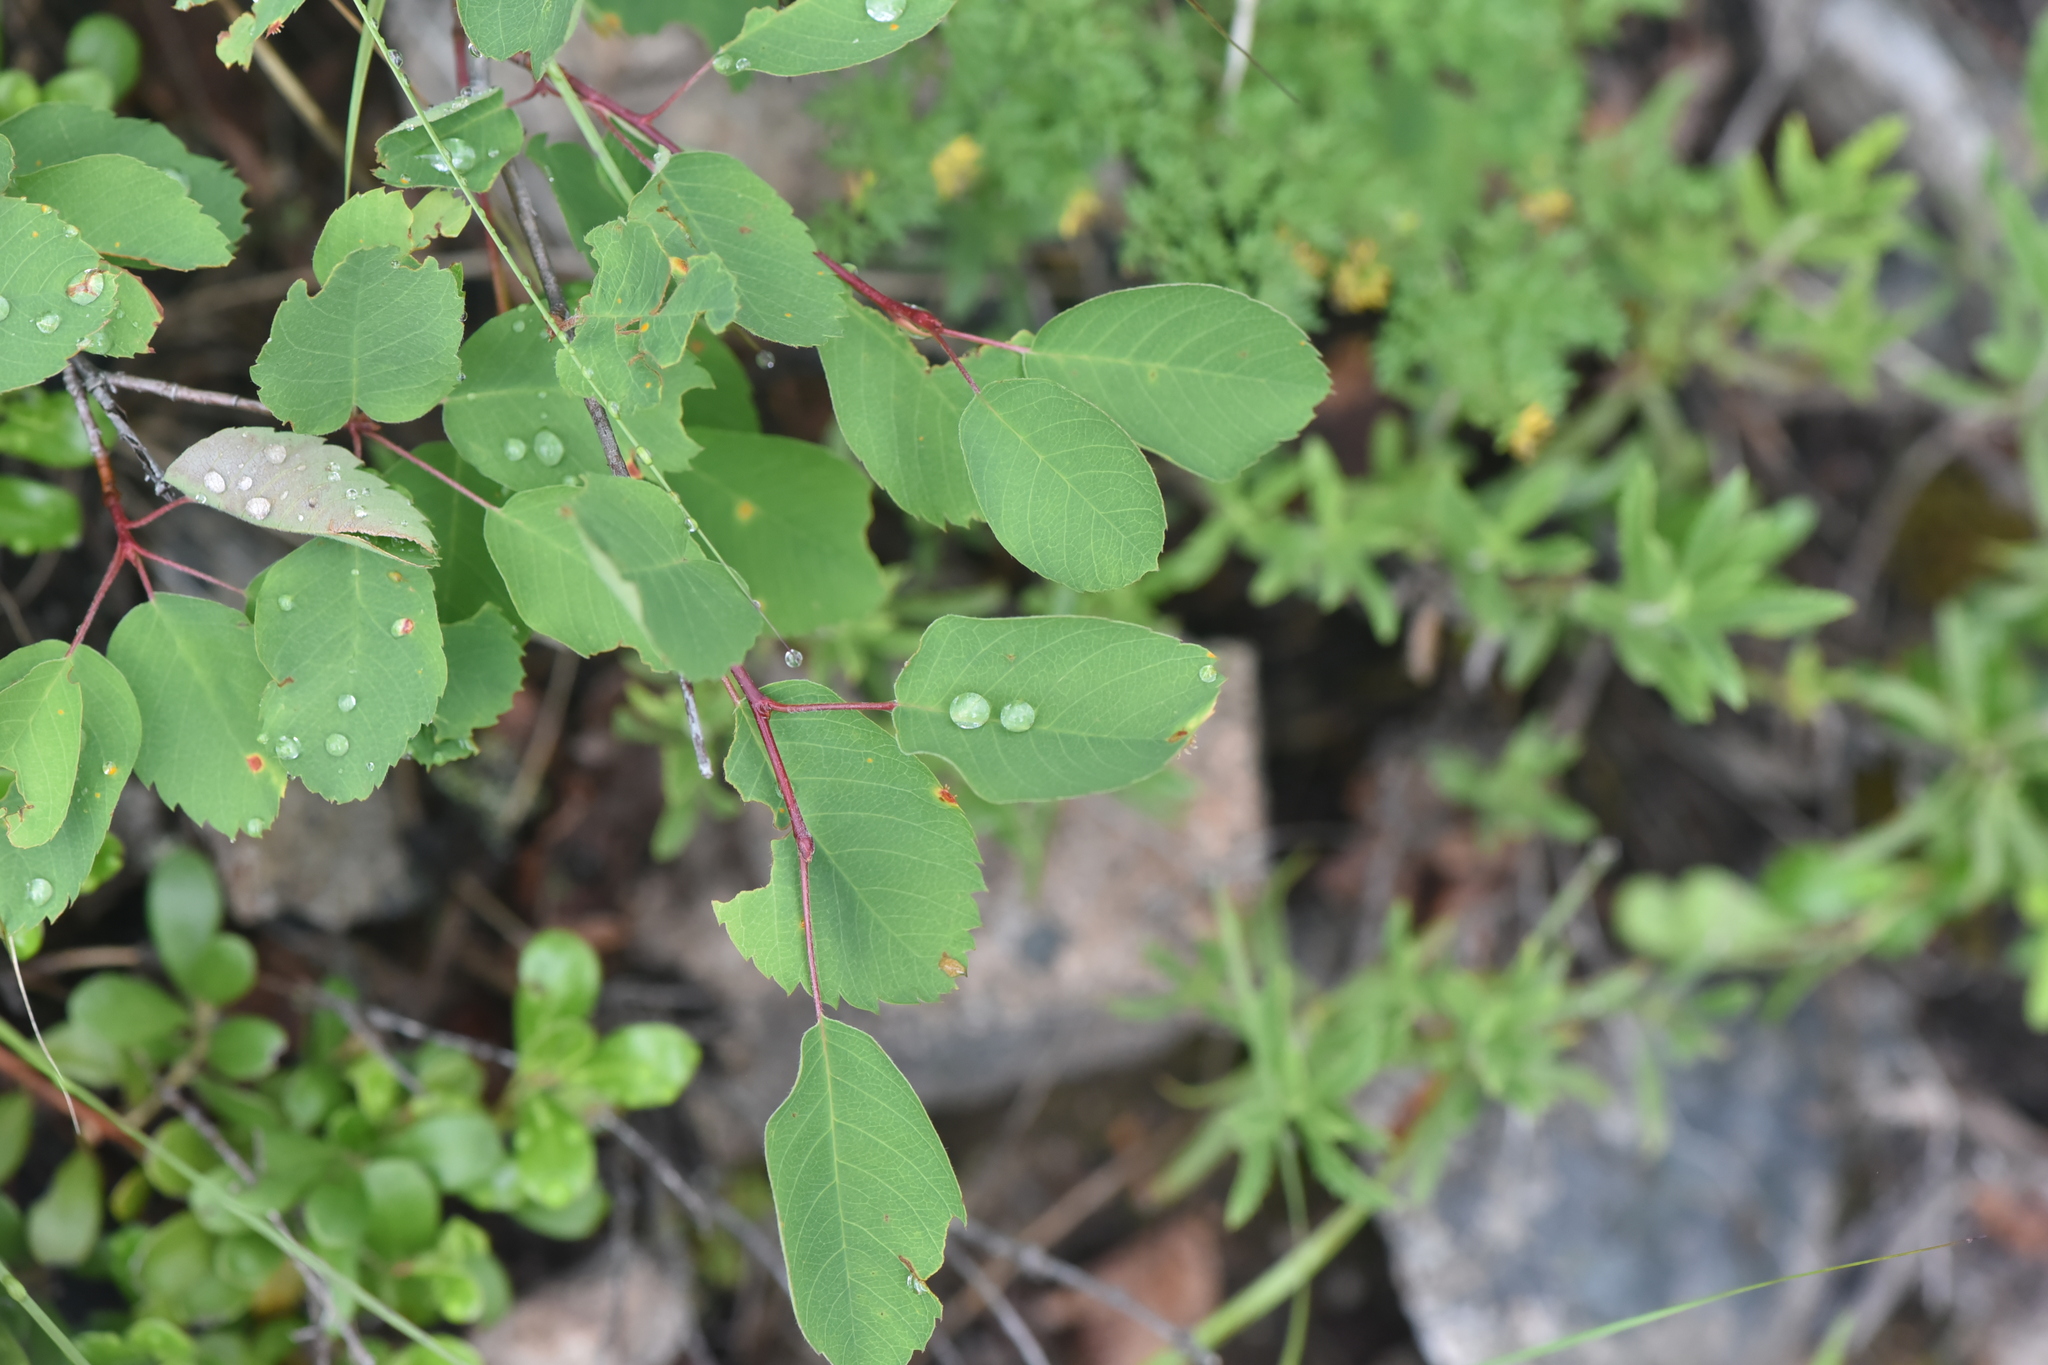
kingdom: Plantae
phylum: Tracheophyta
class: Magnoliopsida
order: Rosales
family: Rosaceae
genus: Amelanchier
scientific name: Amelanchier alnifolia
